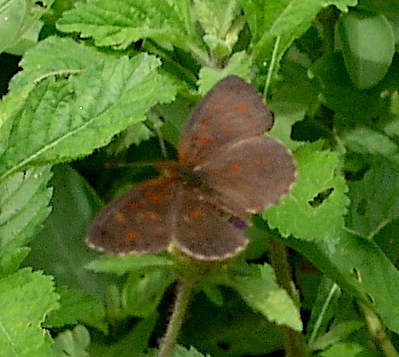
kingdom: Animalia
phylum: Arthropoda
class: Insecta
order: Lepidoptera
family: Nymphalidae
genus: Ortilia
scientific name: Ortilia velica
